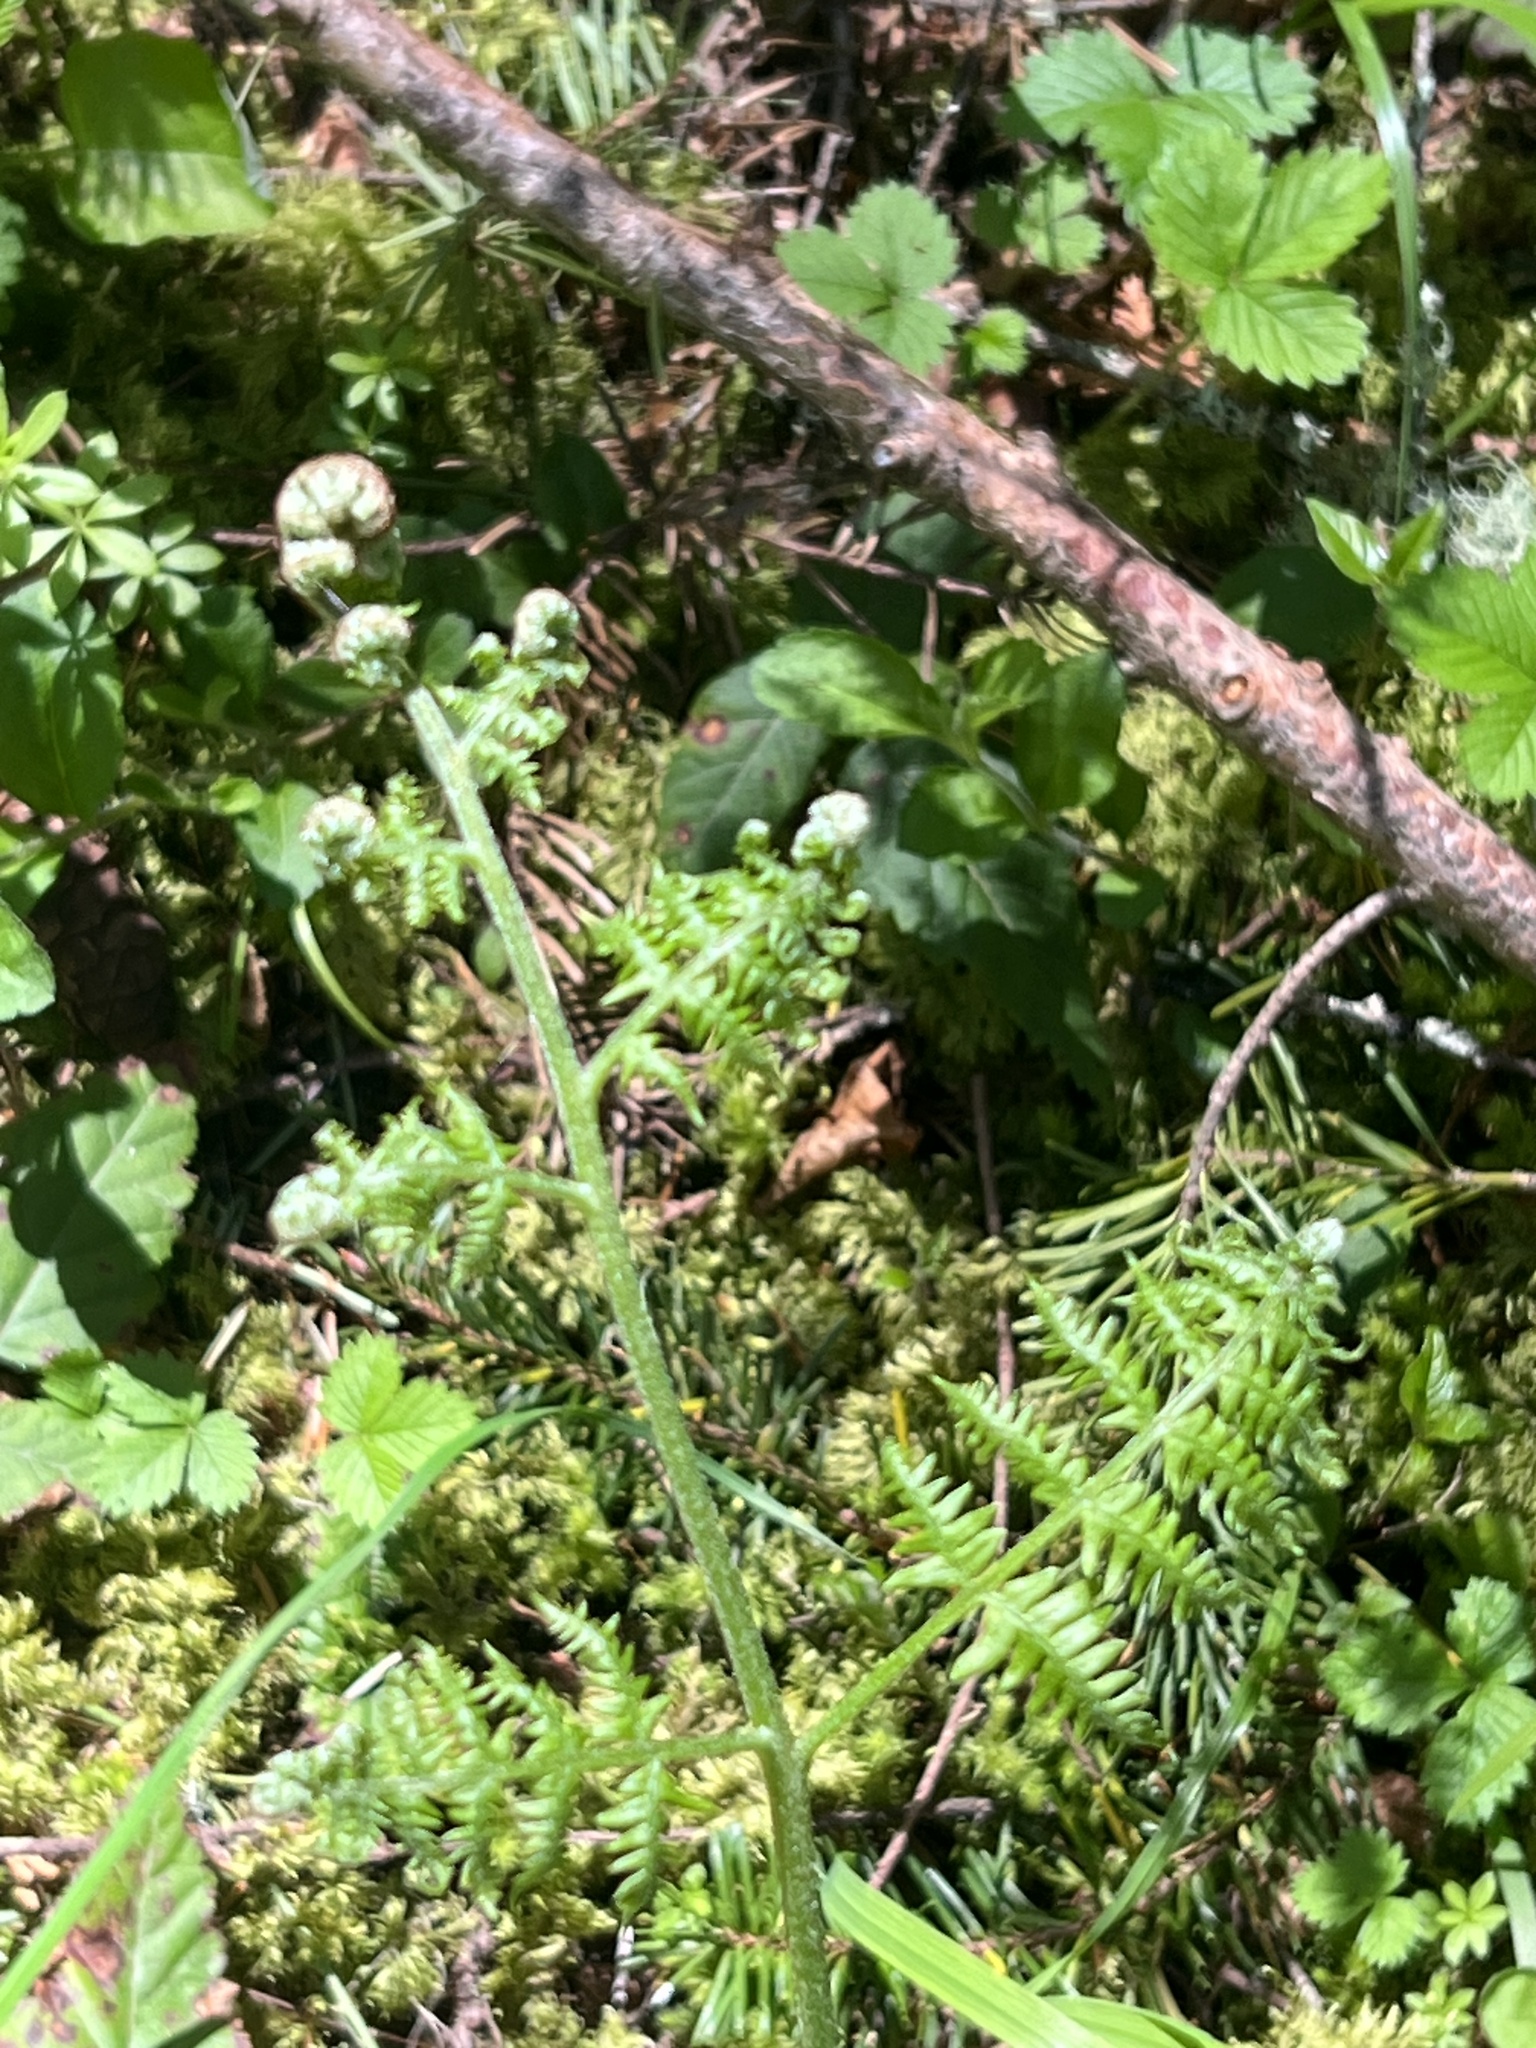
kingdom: Plantae
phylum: Tracheophyta
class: Polypodiopsida
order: Polypodiales
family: Dennstaedtiaceae
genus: Pteridium
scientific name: Pteridium aquilinum
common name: Bracken
